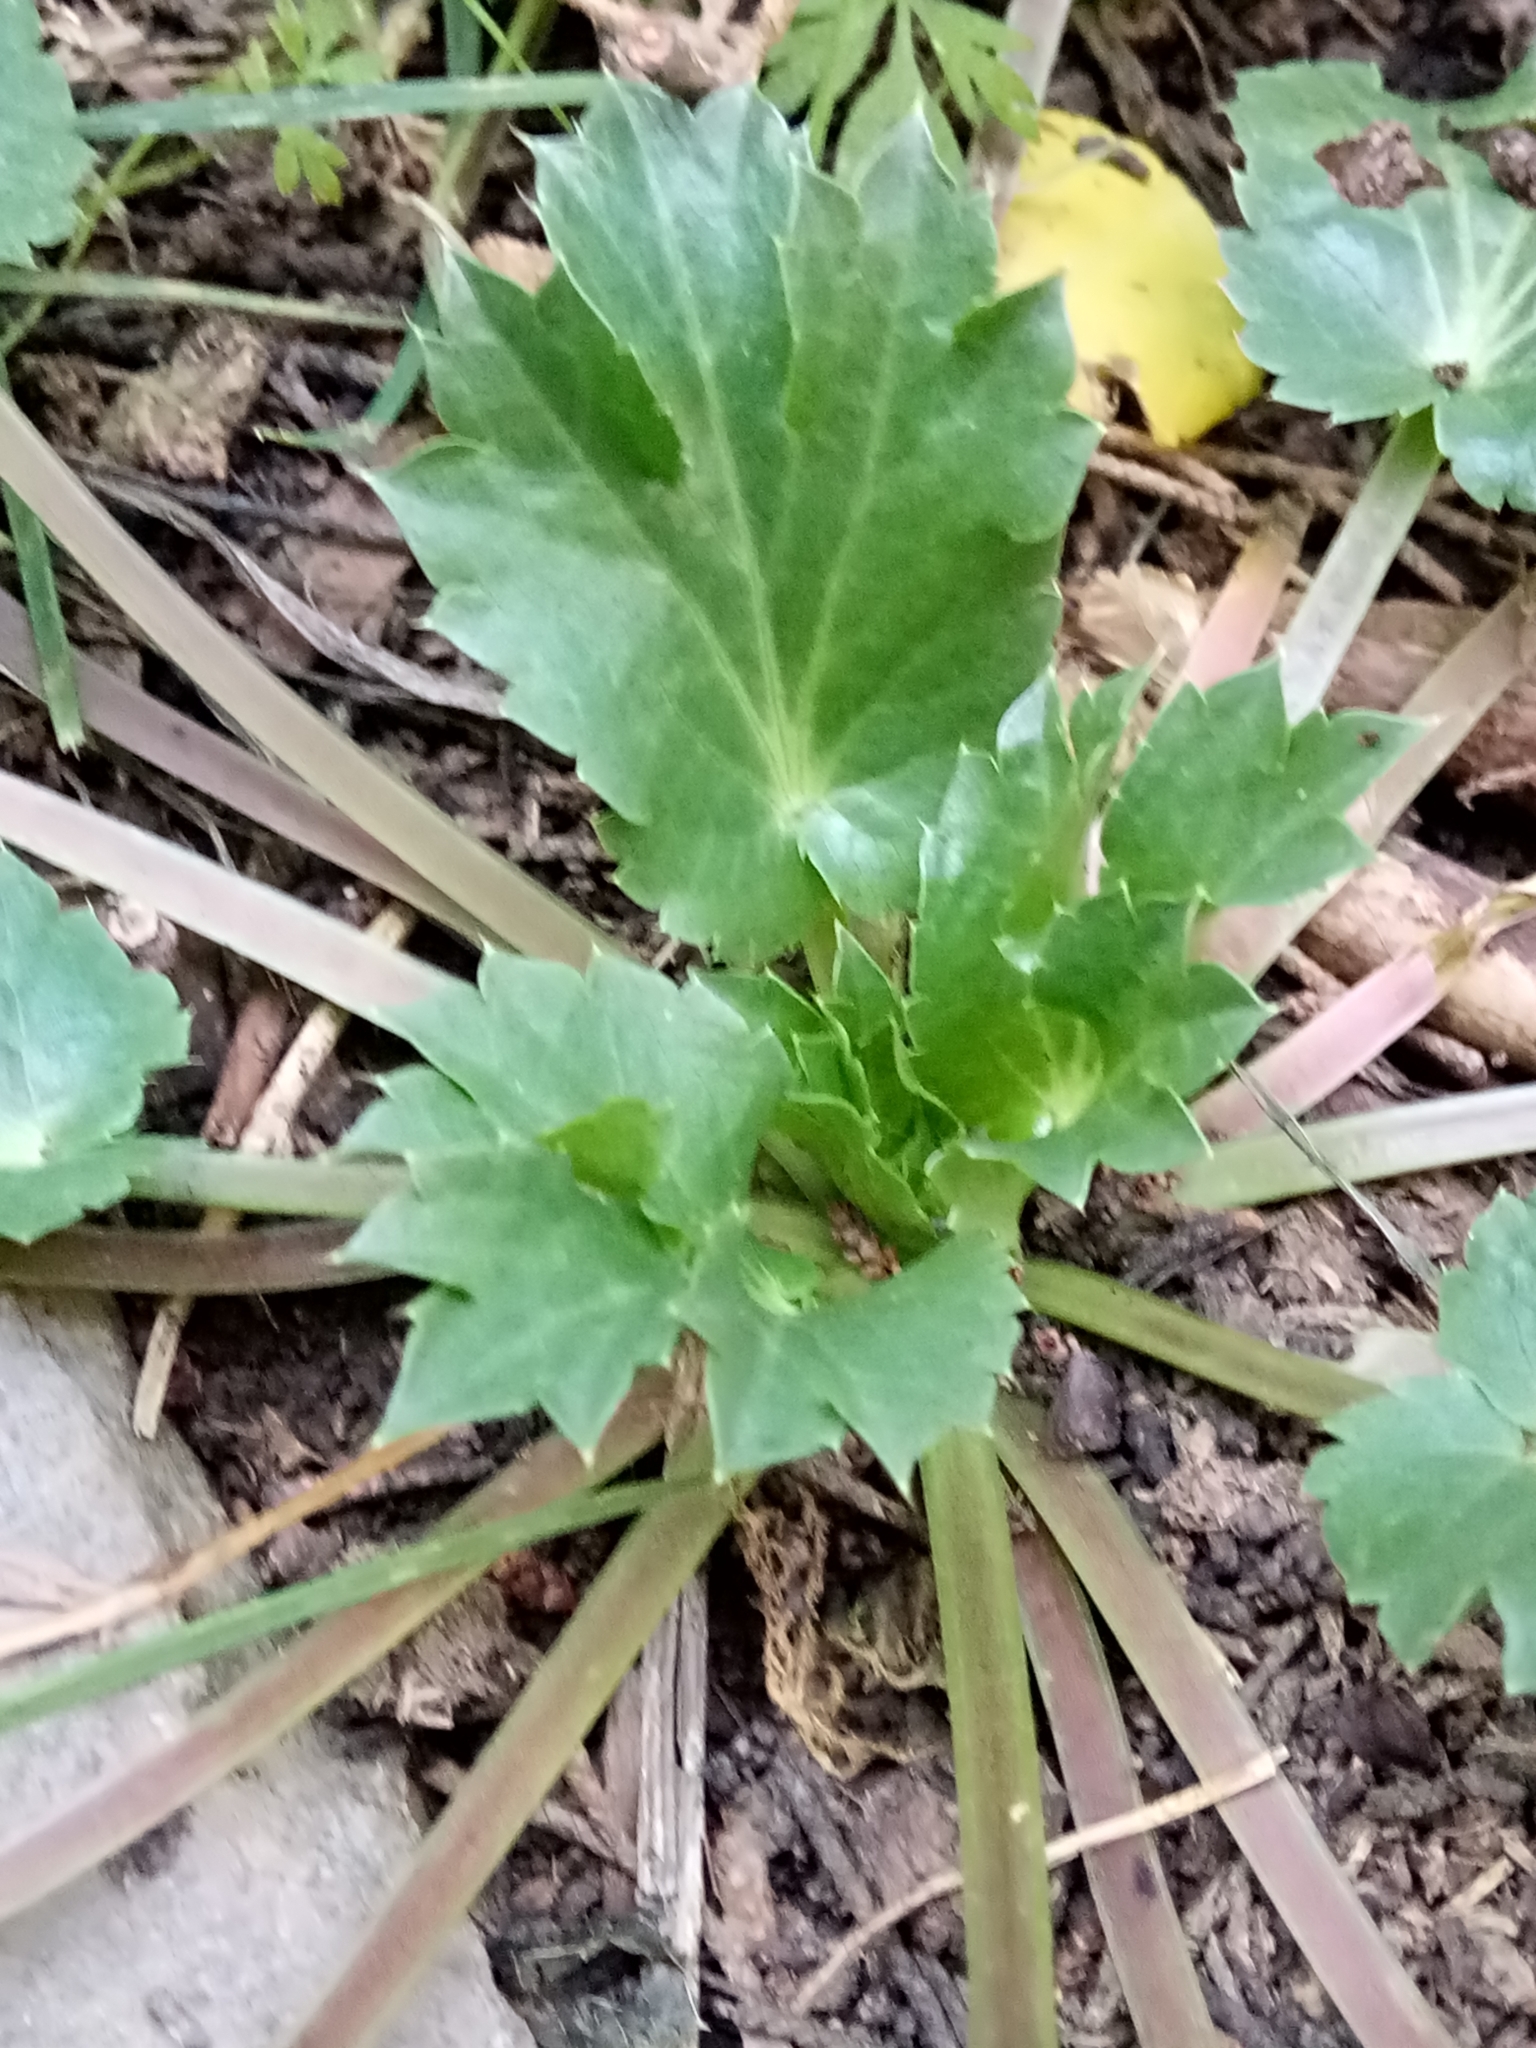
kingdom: Plantae
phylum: Tracheophyta
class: Magnoliopsida
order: Apiales
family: Apiaceae
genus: Eryngium
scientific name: Eryngium triquetrum
